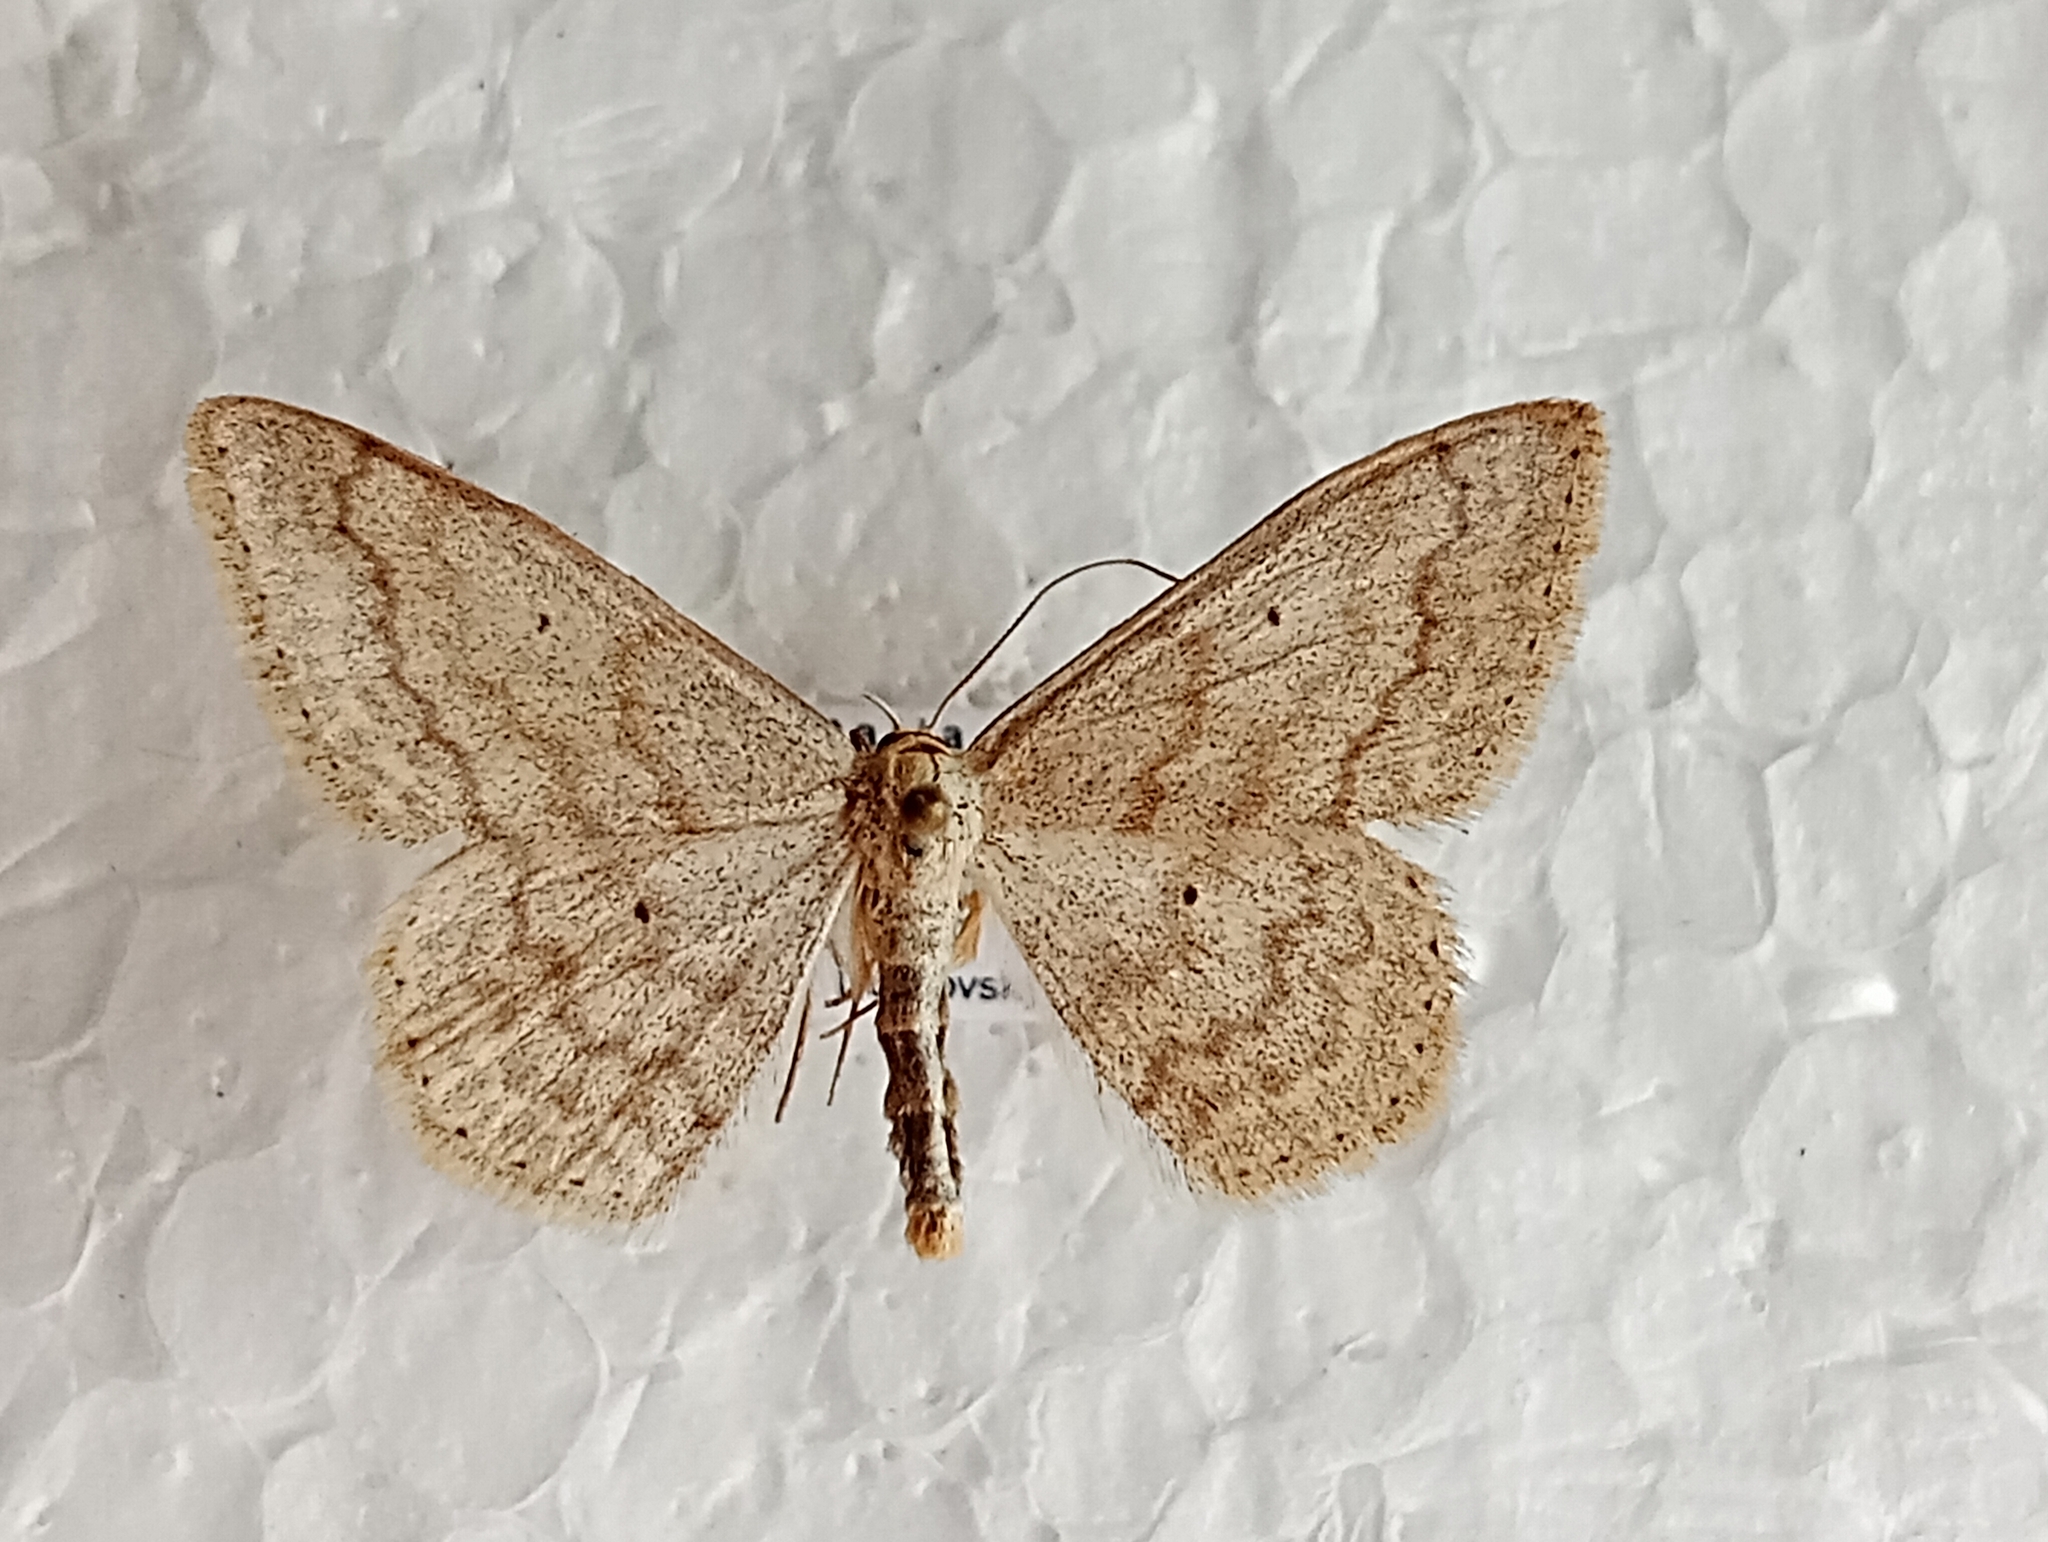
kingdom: Animalia
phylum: Arthropoda
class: Insecta
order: Lepidoptera
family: Geometridae
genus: Scopula
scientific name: Scopula incanata
